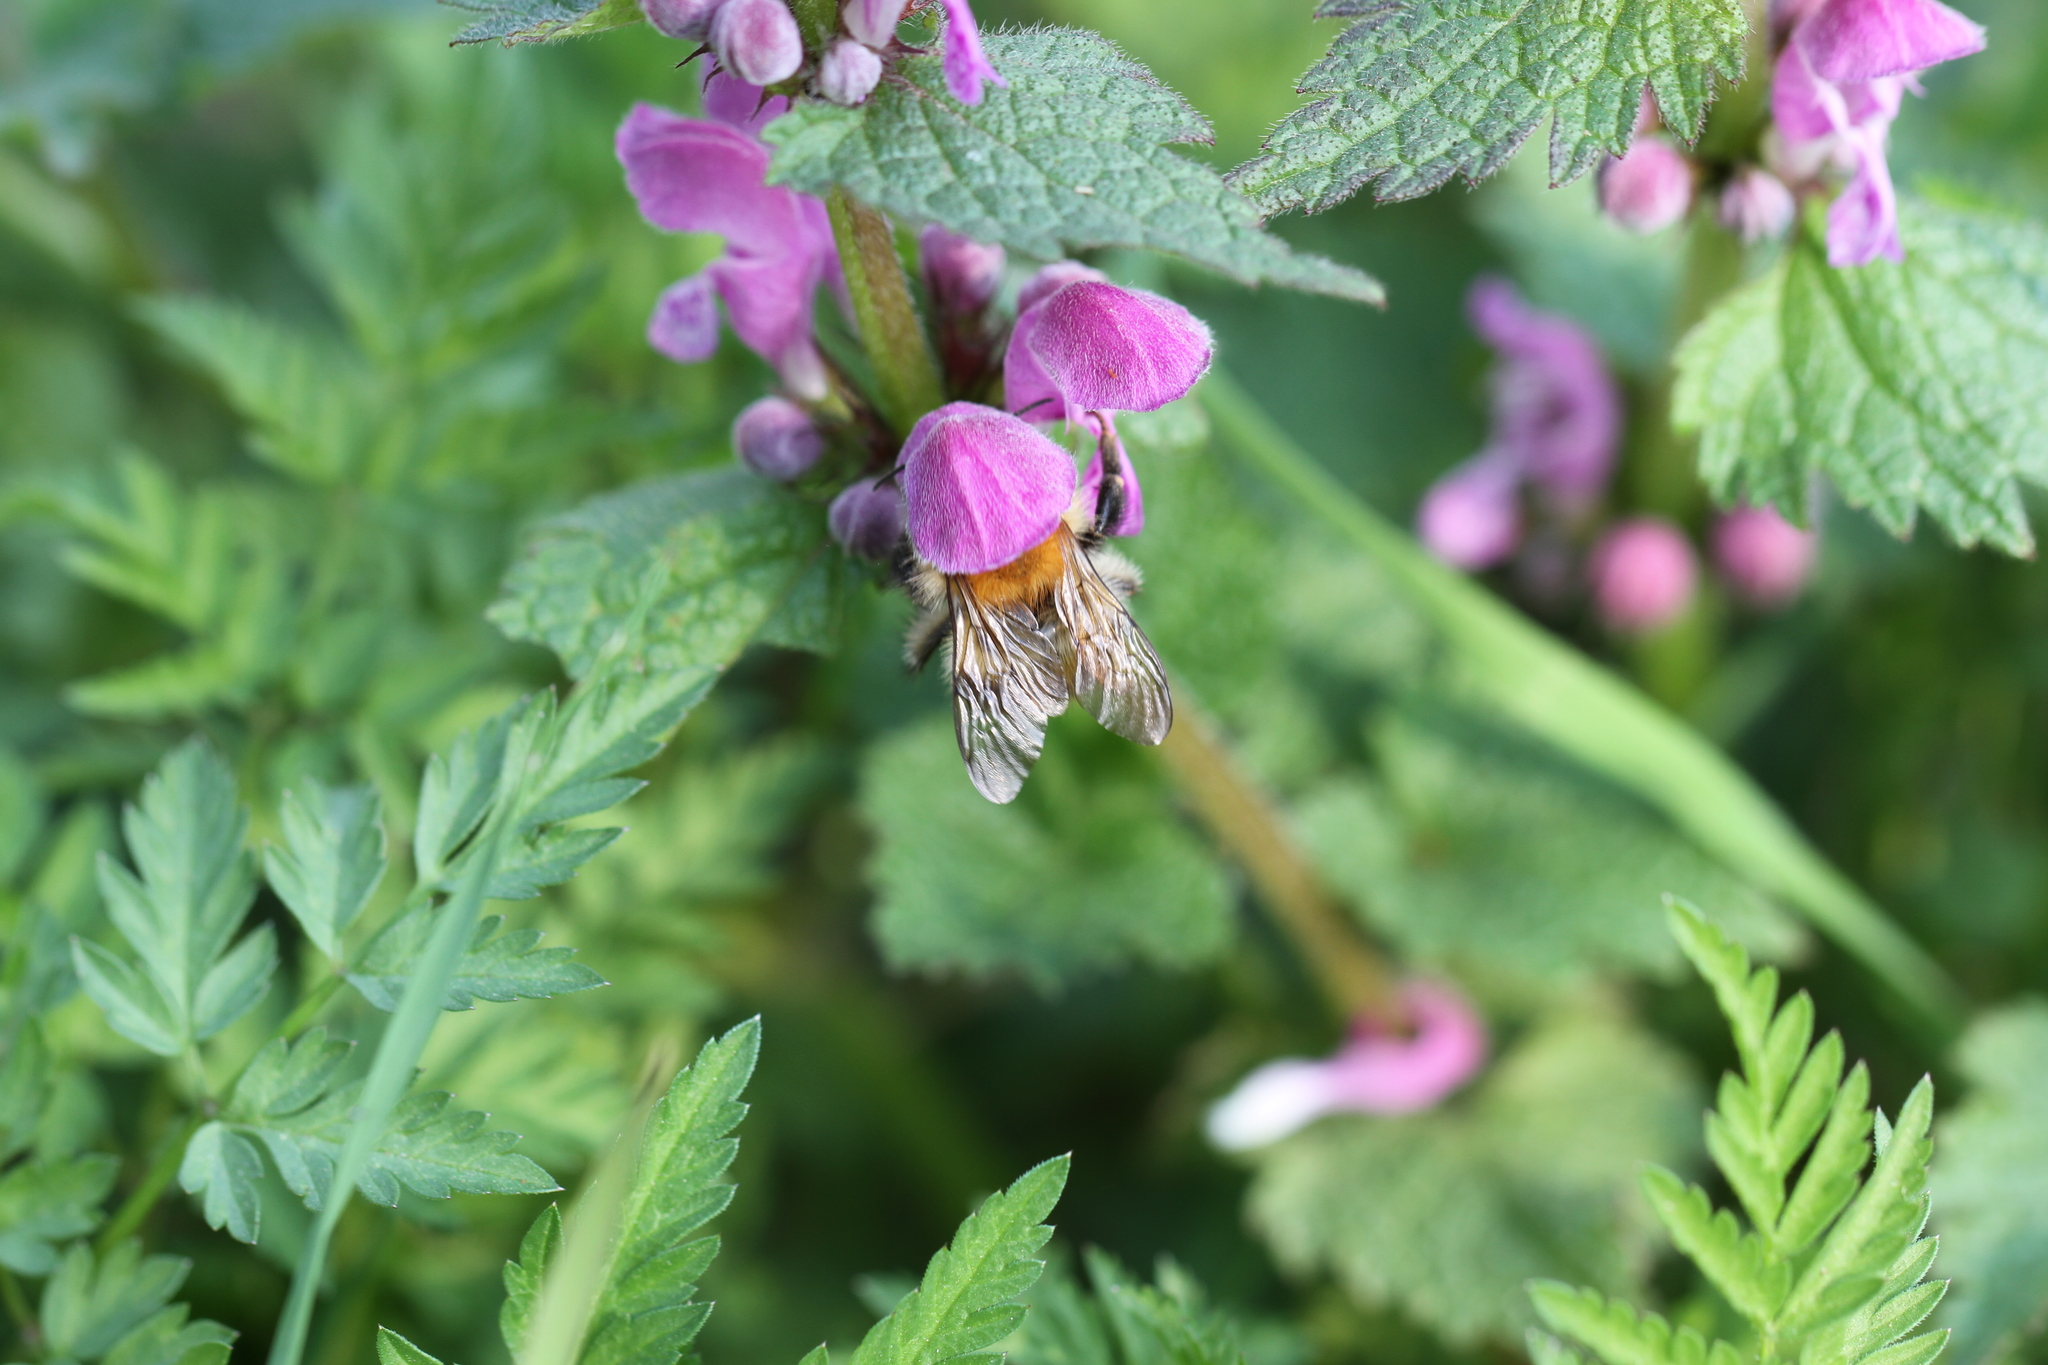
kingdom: Animalia
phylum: Arthropoda
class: Insecta
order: Hymenoptera
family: Apidae
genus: Bombus
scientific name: Bombus pascuorum
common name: Common carder bee
